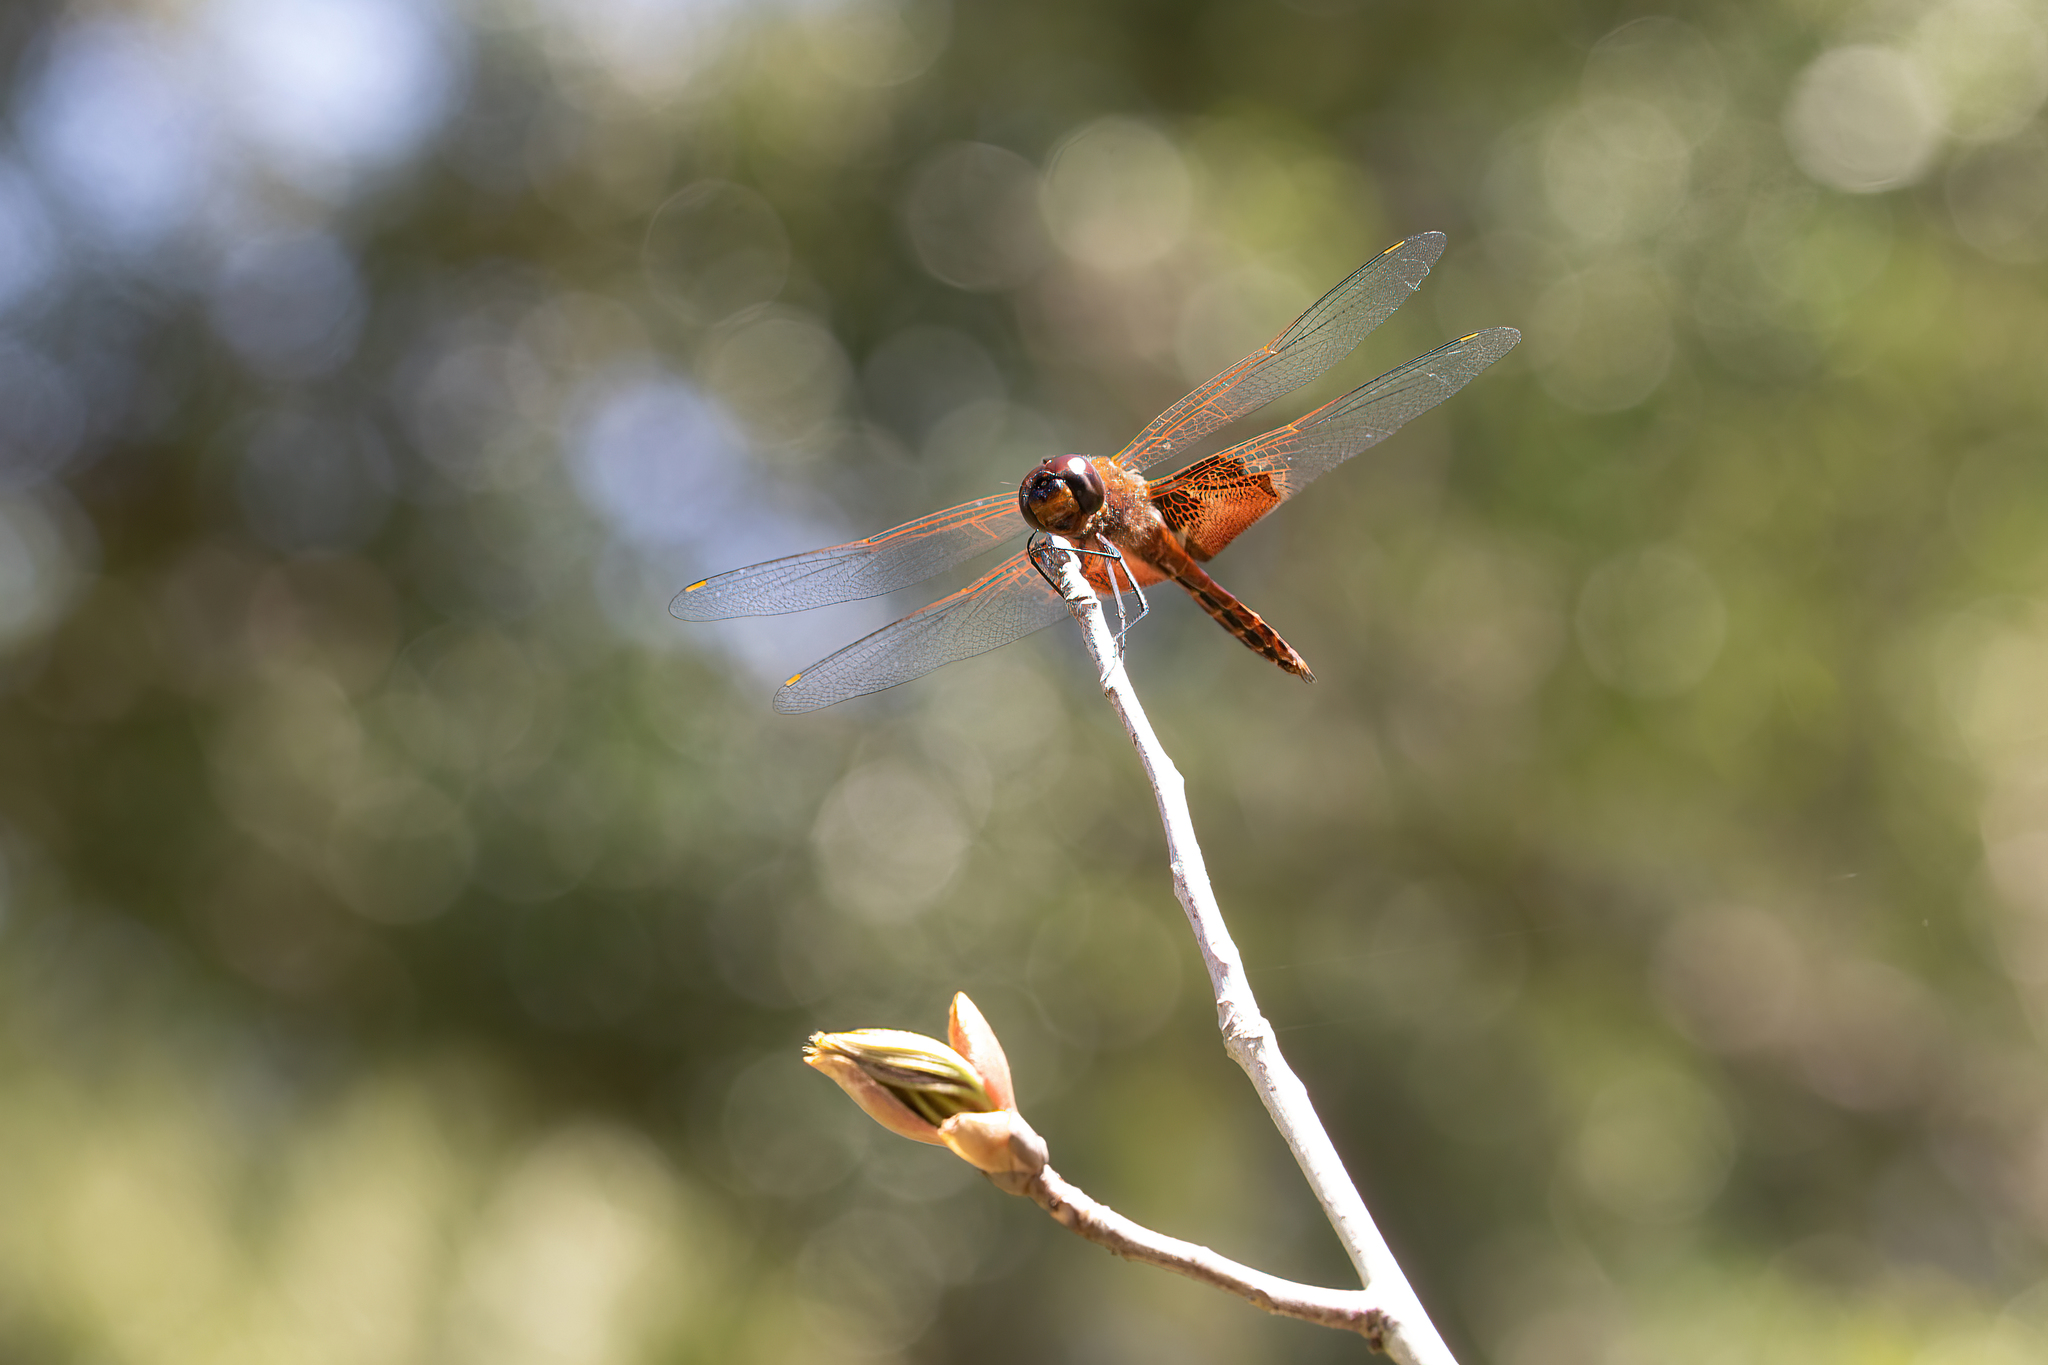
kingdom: Animalia
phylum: Arthropoda
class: Insecta
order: Odonata
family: Libellulidae
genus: Tramea
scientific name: Tramea carolina
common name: Carolina saddlebags
